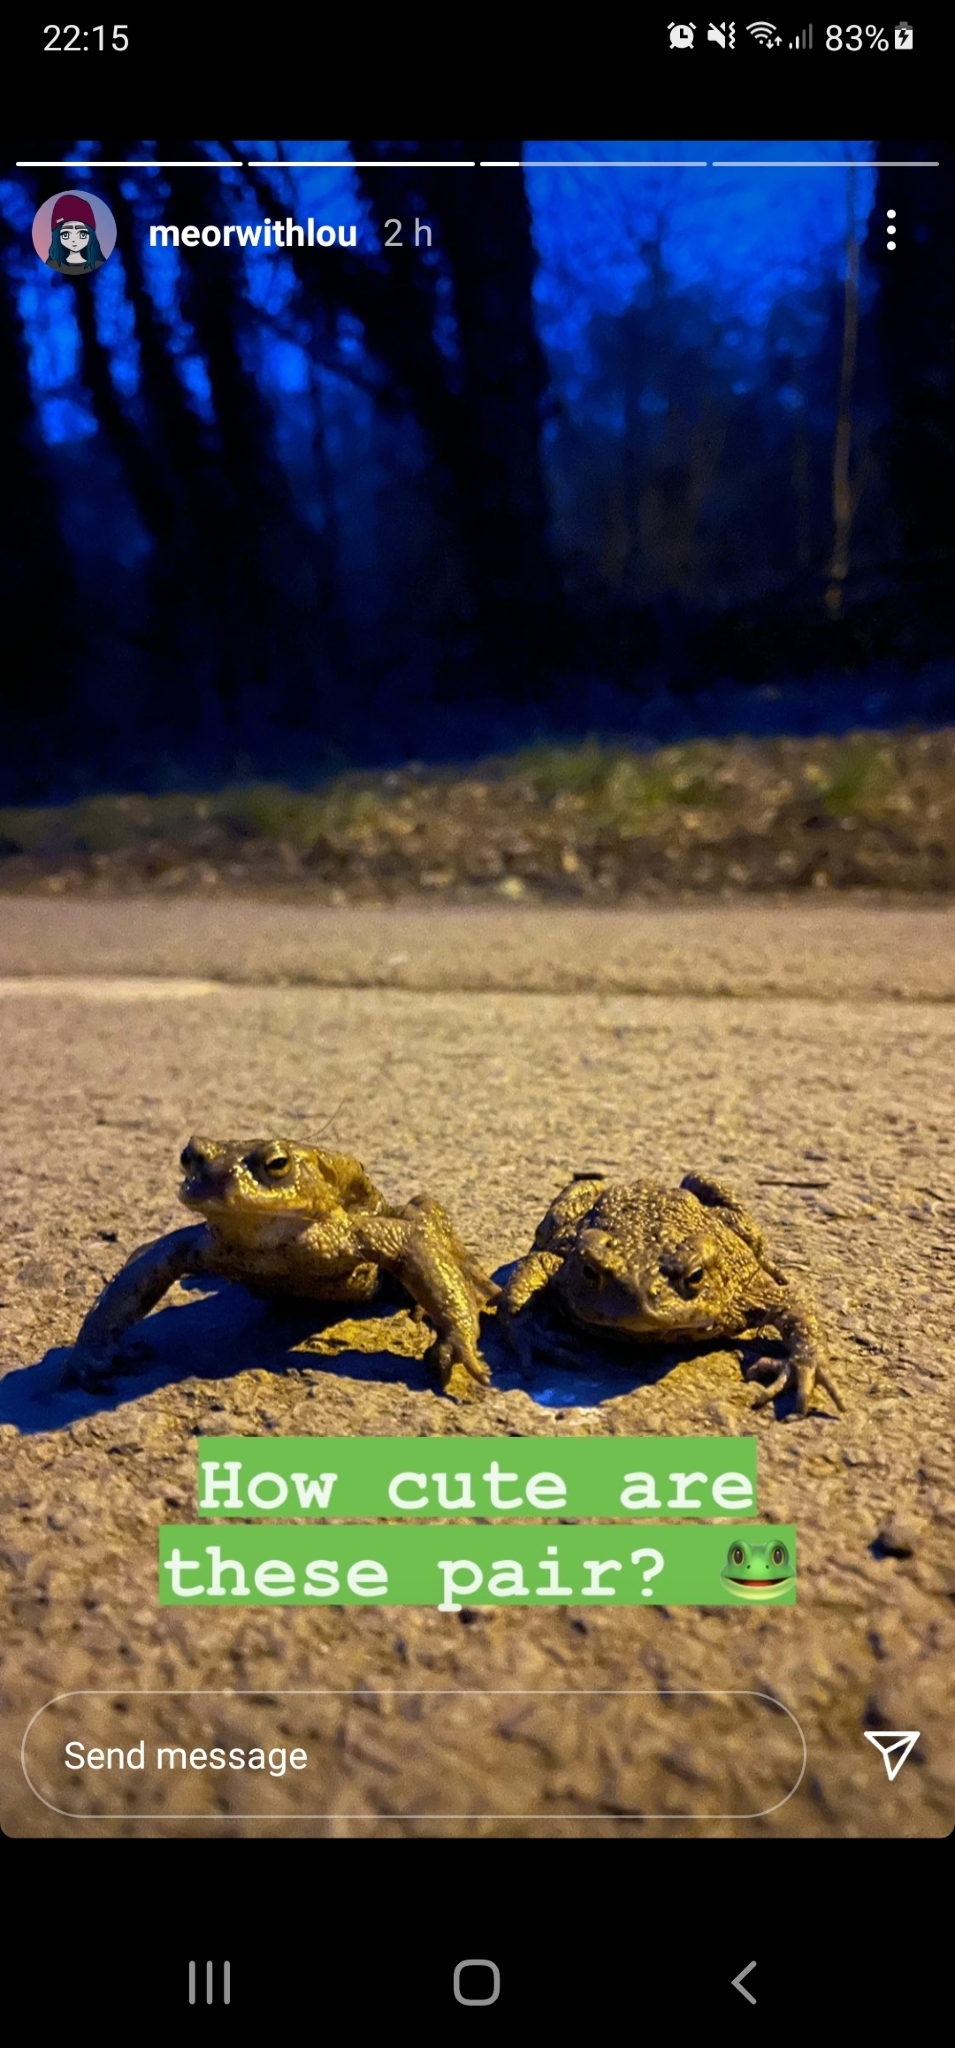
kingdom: Animalia
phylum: Chordata
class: Amphibia
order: Anura
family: Bufonidae
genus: Bufo
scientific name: Bufo bufo
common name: Common toad
